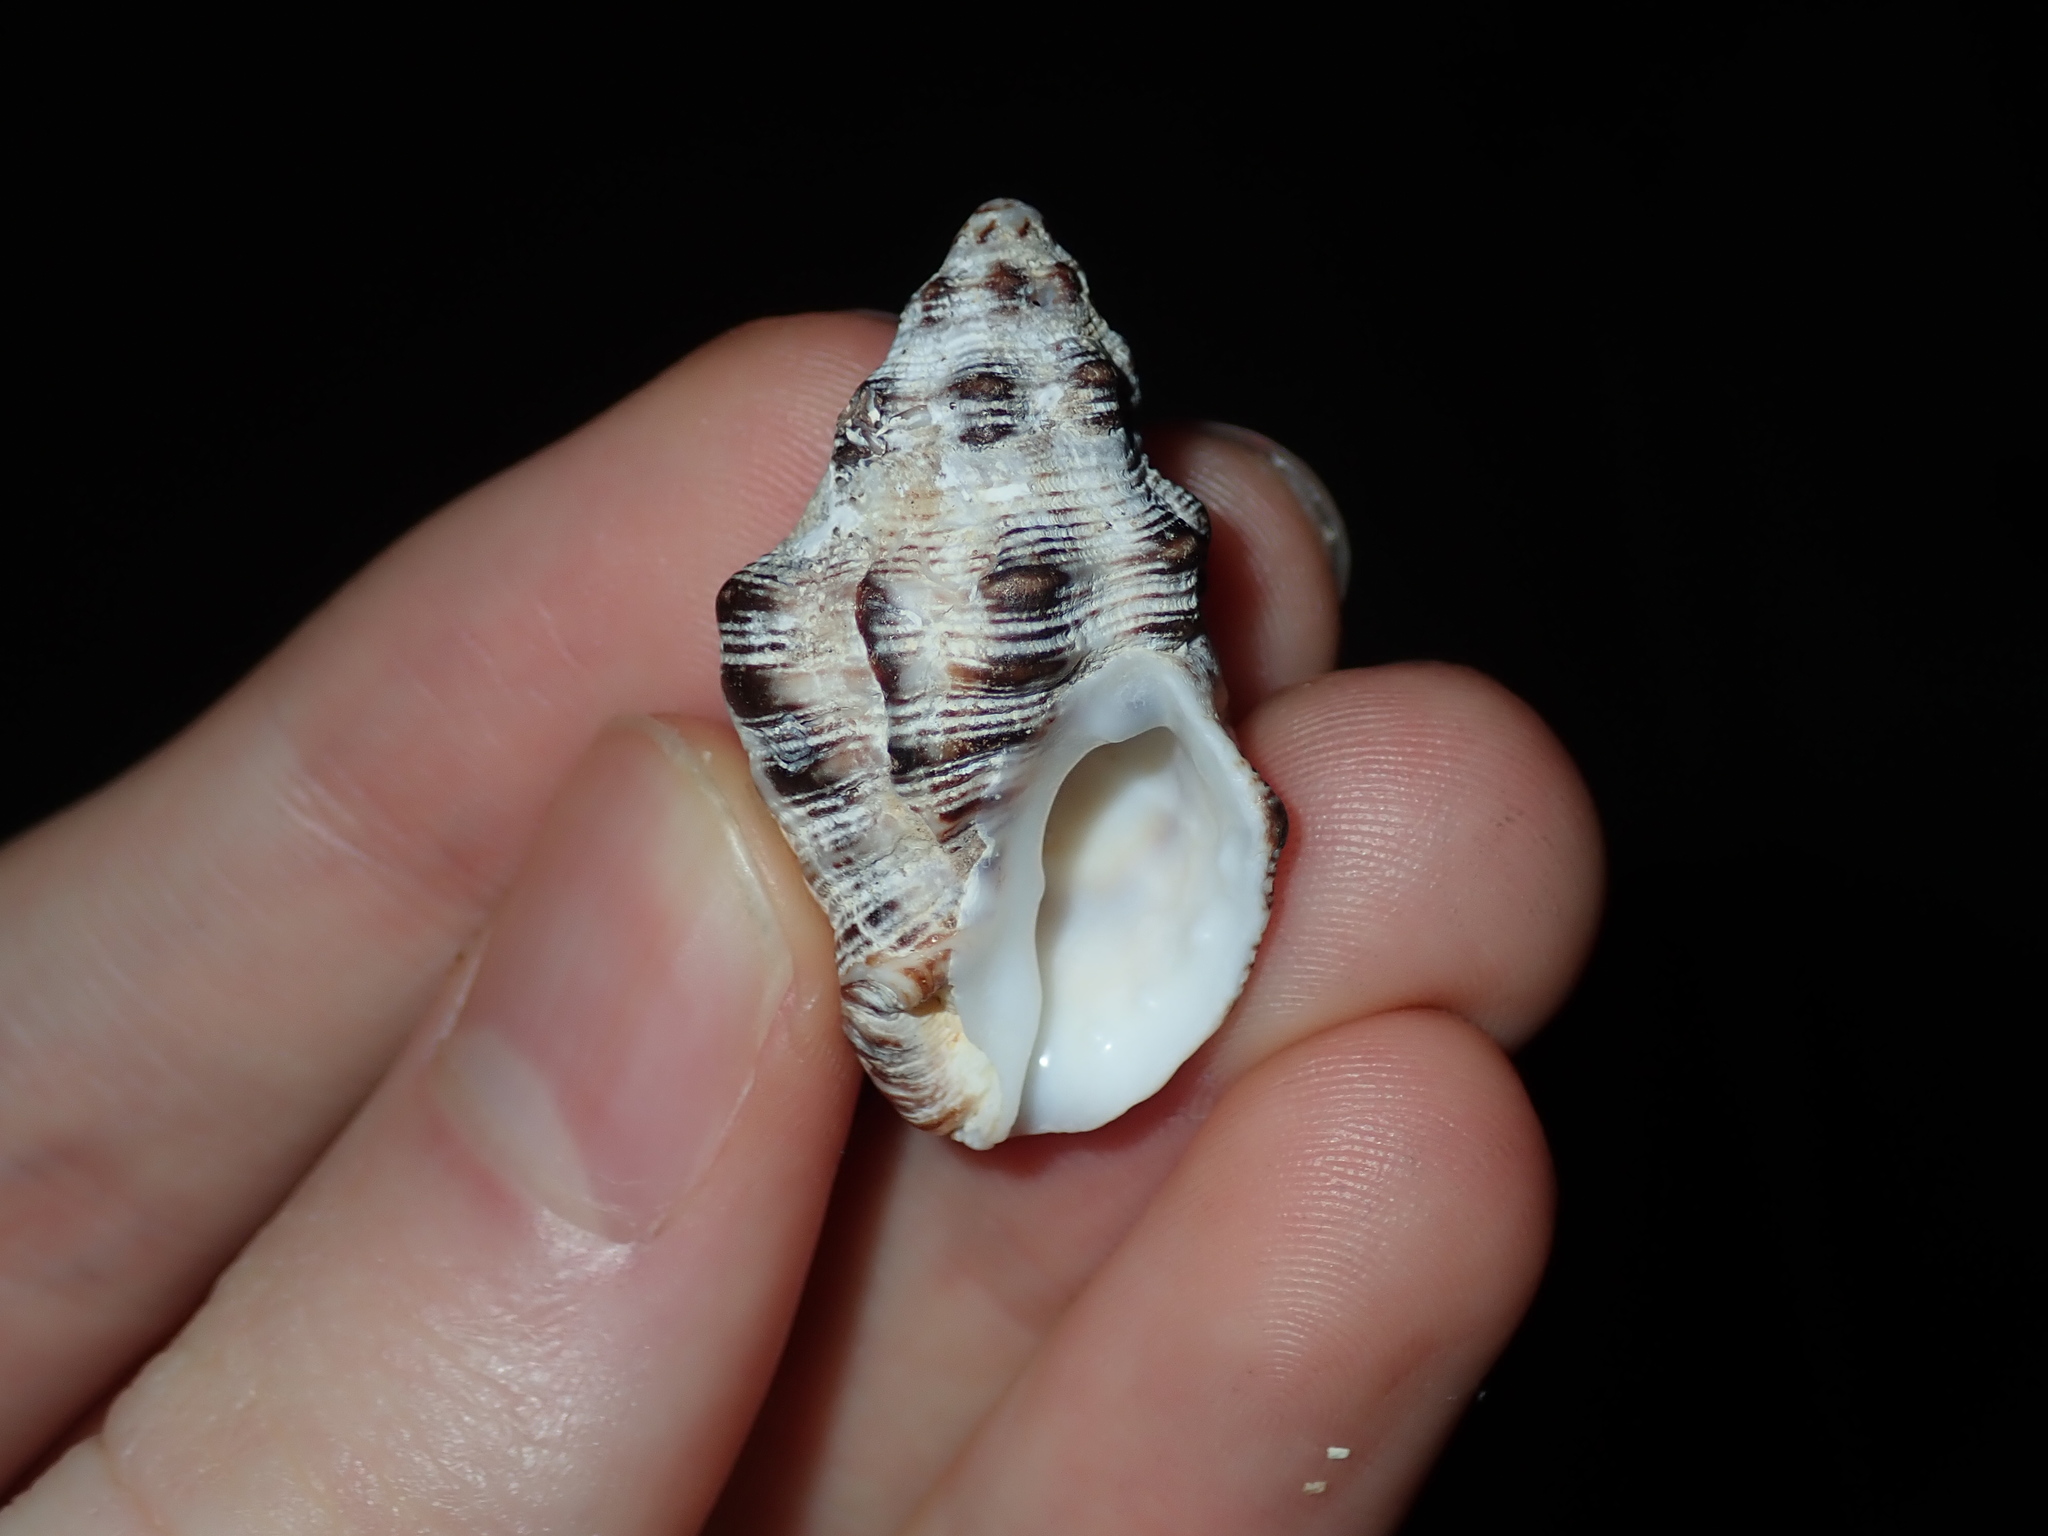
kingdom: Animalia
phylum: Mollusca
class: Gastropoda
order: Neogastropoda
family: Muricidae
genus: Thais
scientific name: Thais ambustulata
